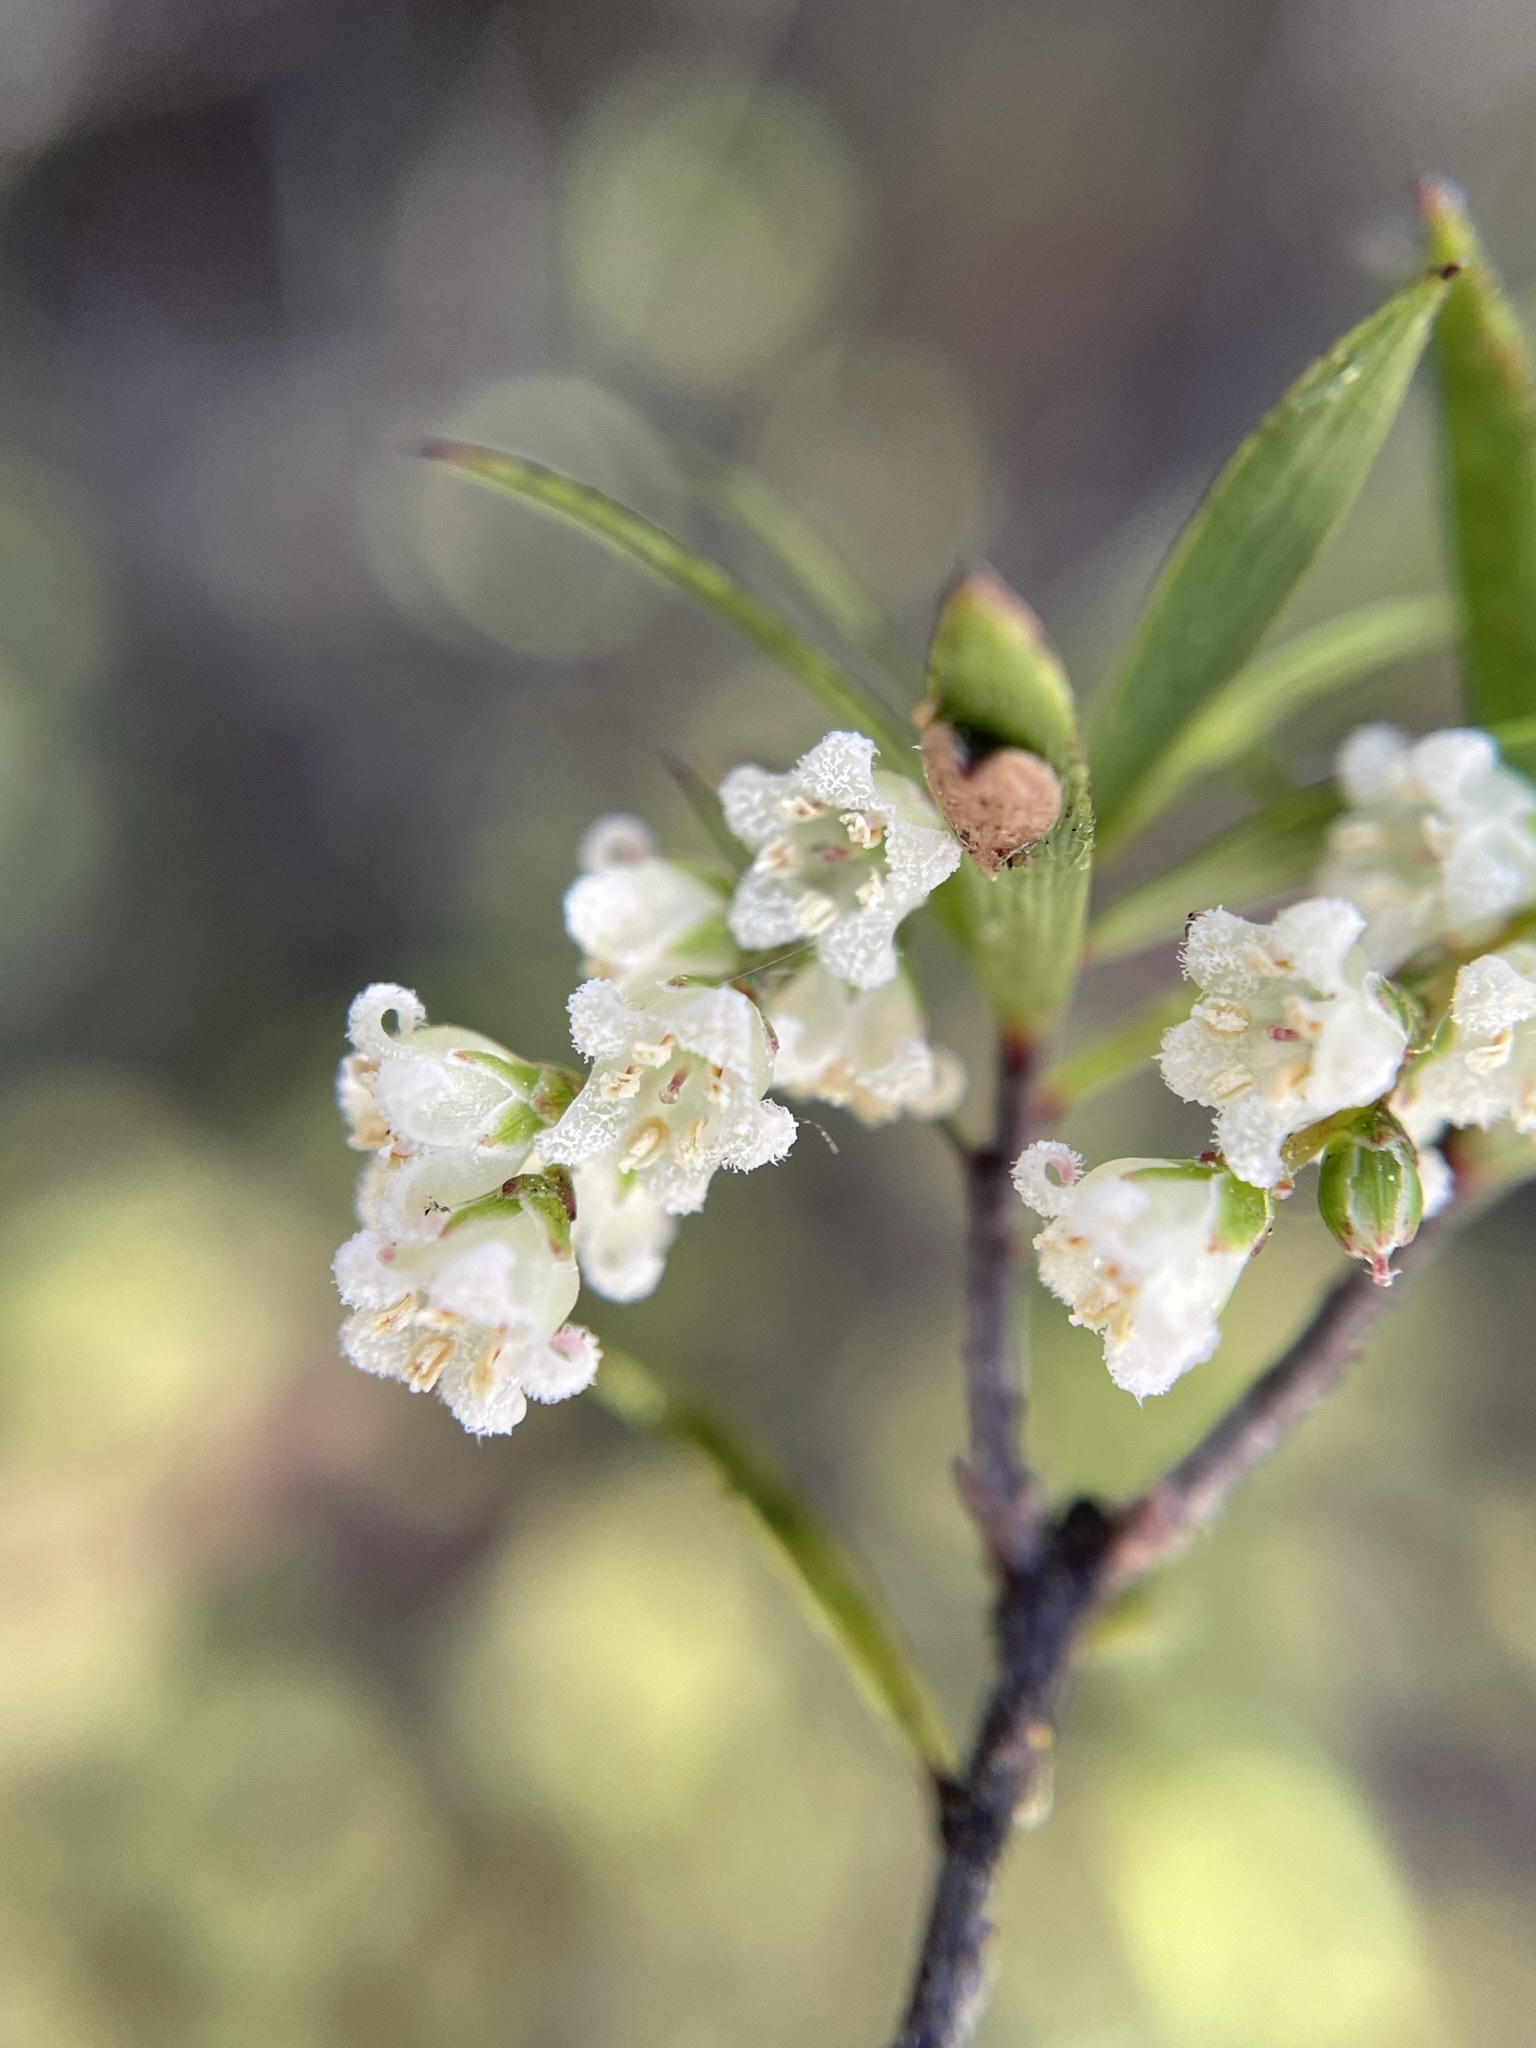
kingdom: Plantae
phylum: Tracheophyta
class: Magnoliopsida
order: Ericales
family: Ericaceae
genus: Leucopogon
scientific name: Leucopogon fasciculatus
